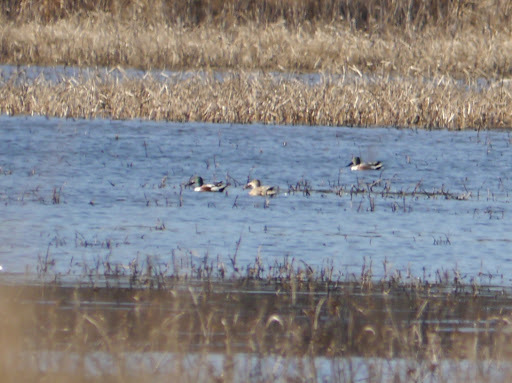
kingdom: Animalia
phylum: Chordata
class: Aves
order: Anseriformes
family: Anatidae
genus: Spatula
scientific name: Spatula clypeata
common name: Northern shoveler
